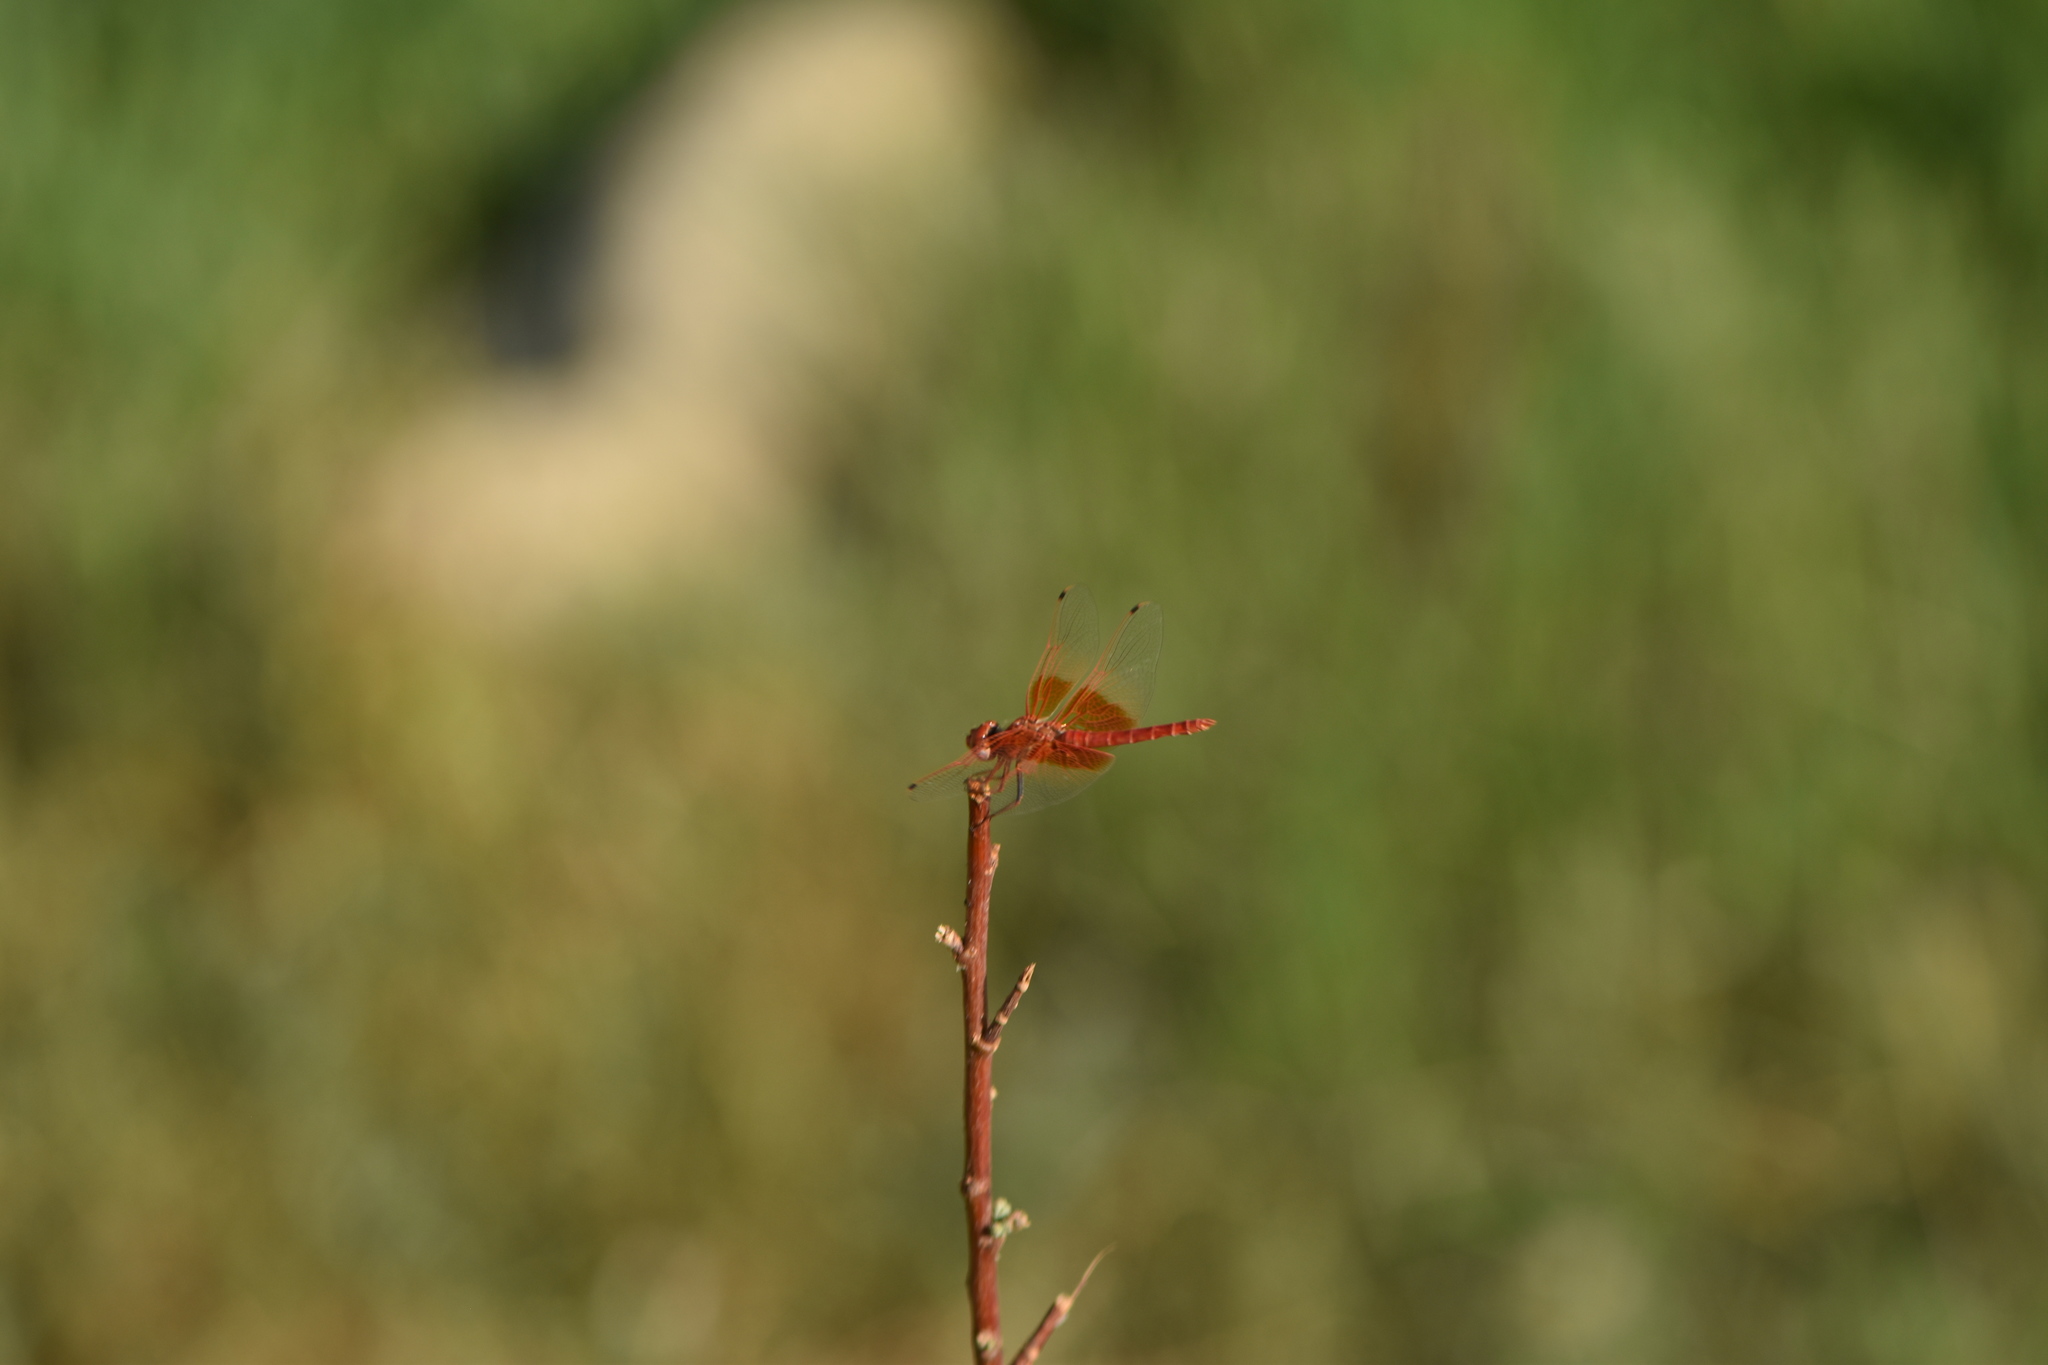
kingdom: Animalia
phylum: Arthropoda
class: Insecta
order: Odonata
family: Libellulidae
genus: Trithemis
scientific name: Trithemis kirbyi
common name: Kirby's dropwing
